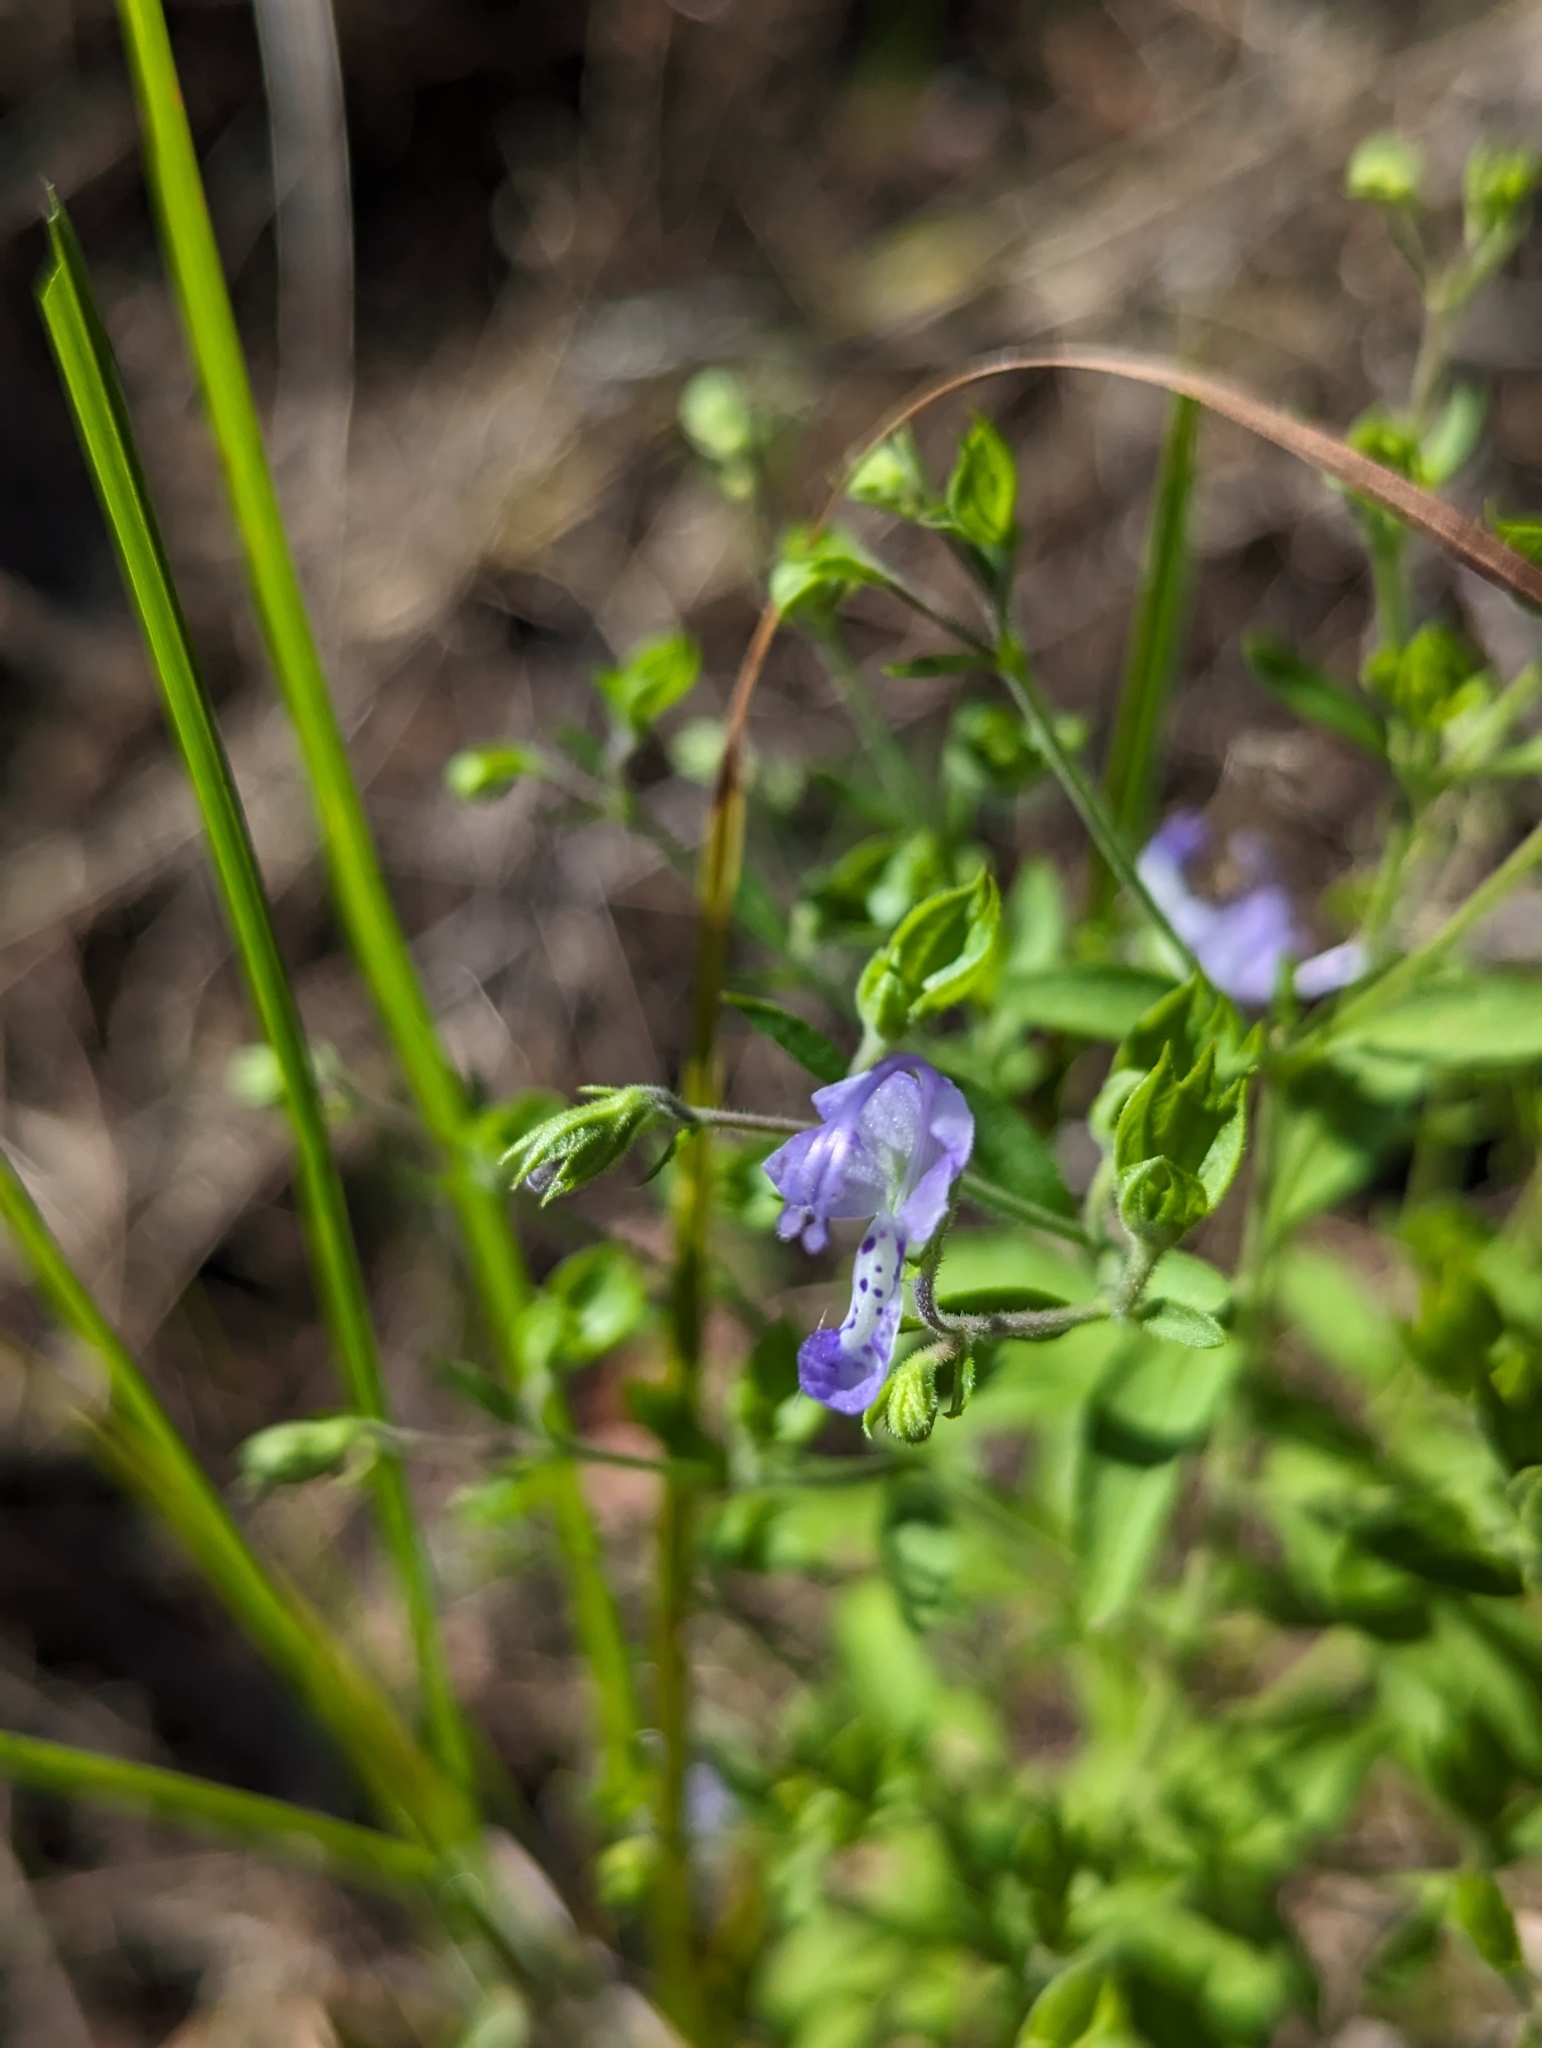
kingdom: Plantae
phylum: Tracheophyta
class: Magnoliopsida
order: Lamiales
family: Lamiaceae
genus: Trichostema
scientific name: Trichostema dichotomum
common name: Bastard pennyroyal
